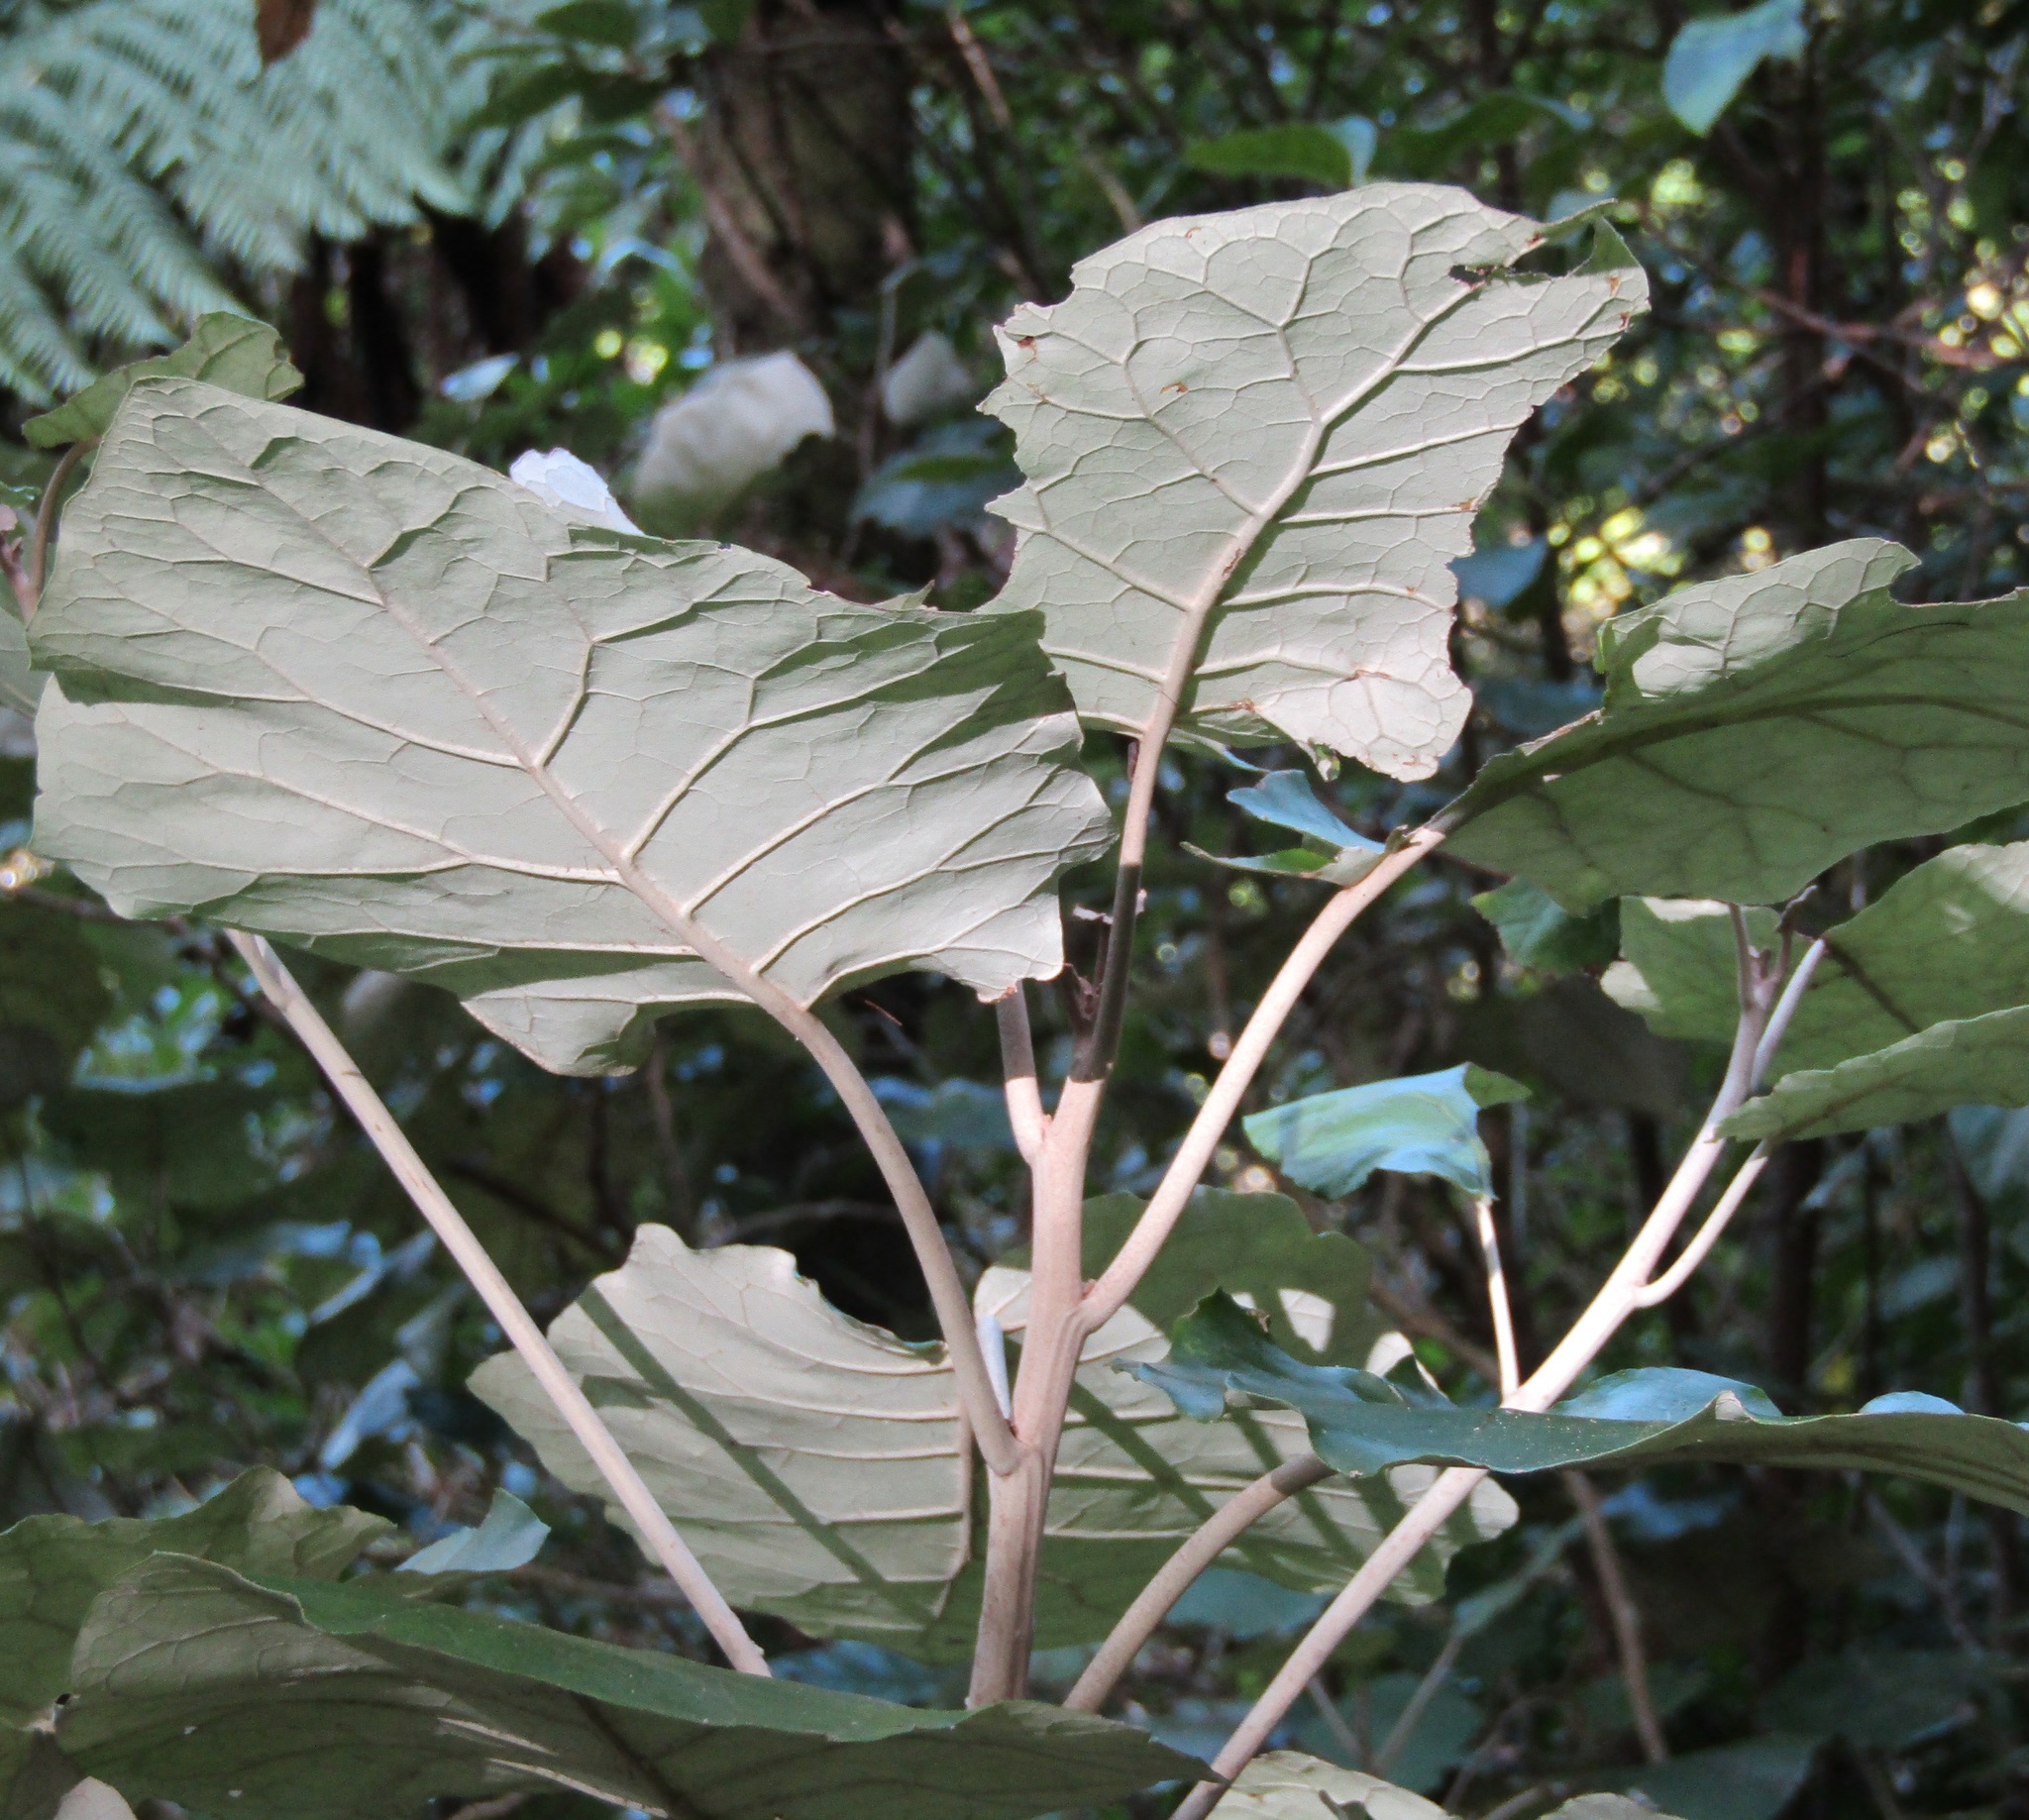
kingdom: Plantae
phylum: Tracheophyta
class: Magnoliopsida
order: Asterales
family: Asteraceae
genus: Brachyglottis
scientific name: Brachyglottis repanda
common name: Hedge ragwort
